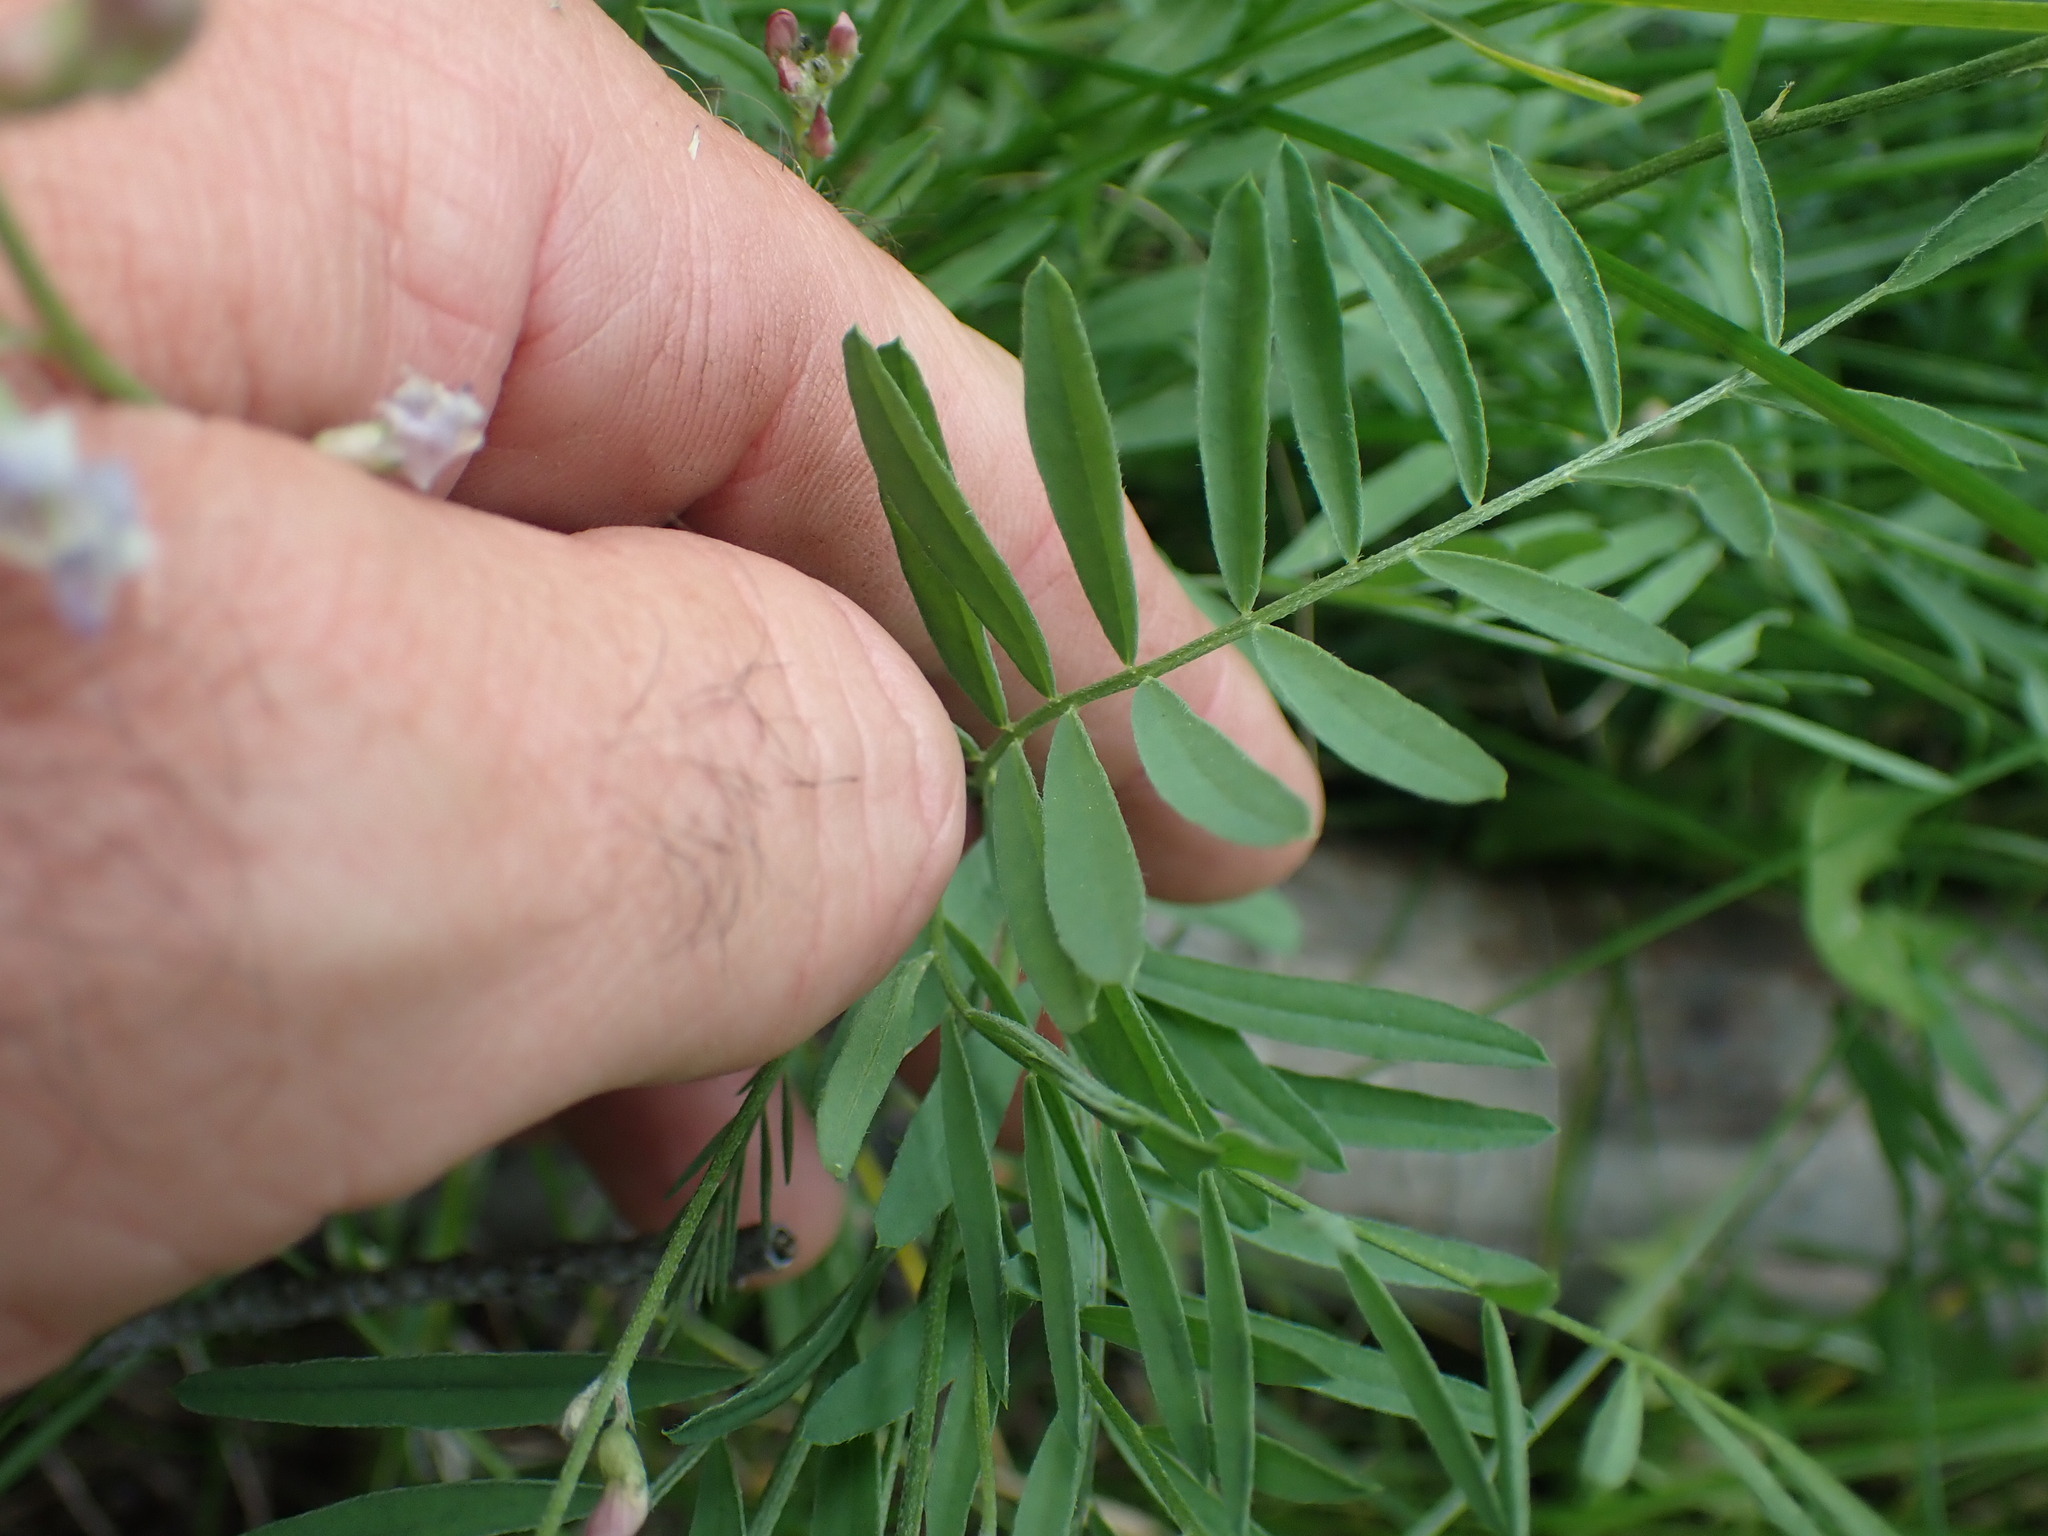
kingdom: Plantae
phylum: Tracheophyta
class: Magnoliopsida
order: Fabales
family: Fabaceae
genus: Astragalus
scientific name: Astragalus miser
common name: Timber milkvetch
